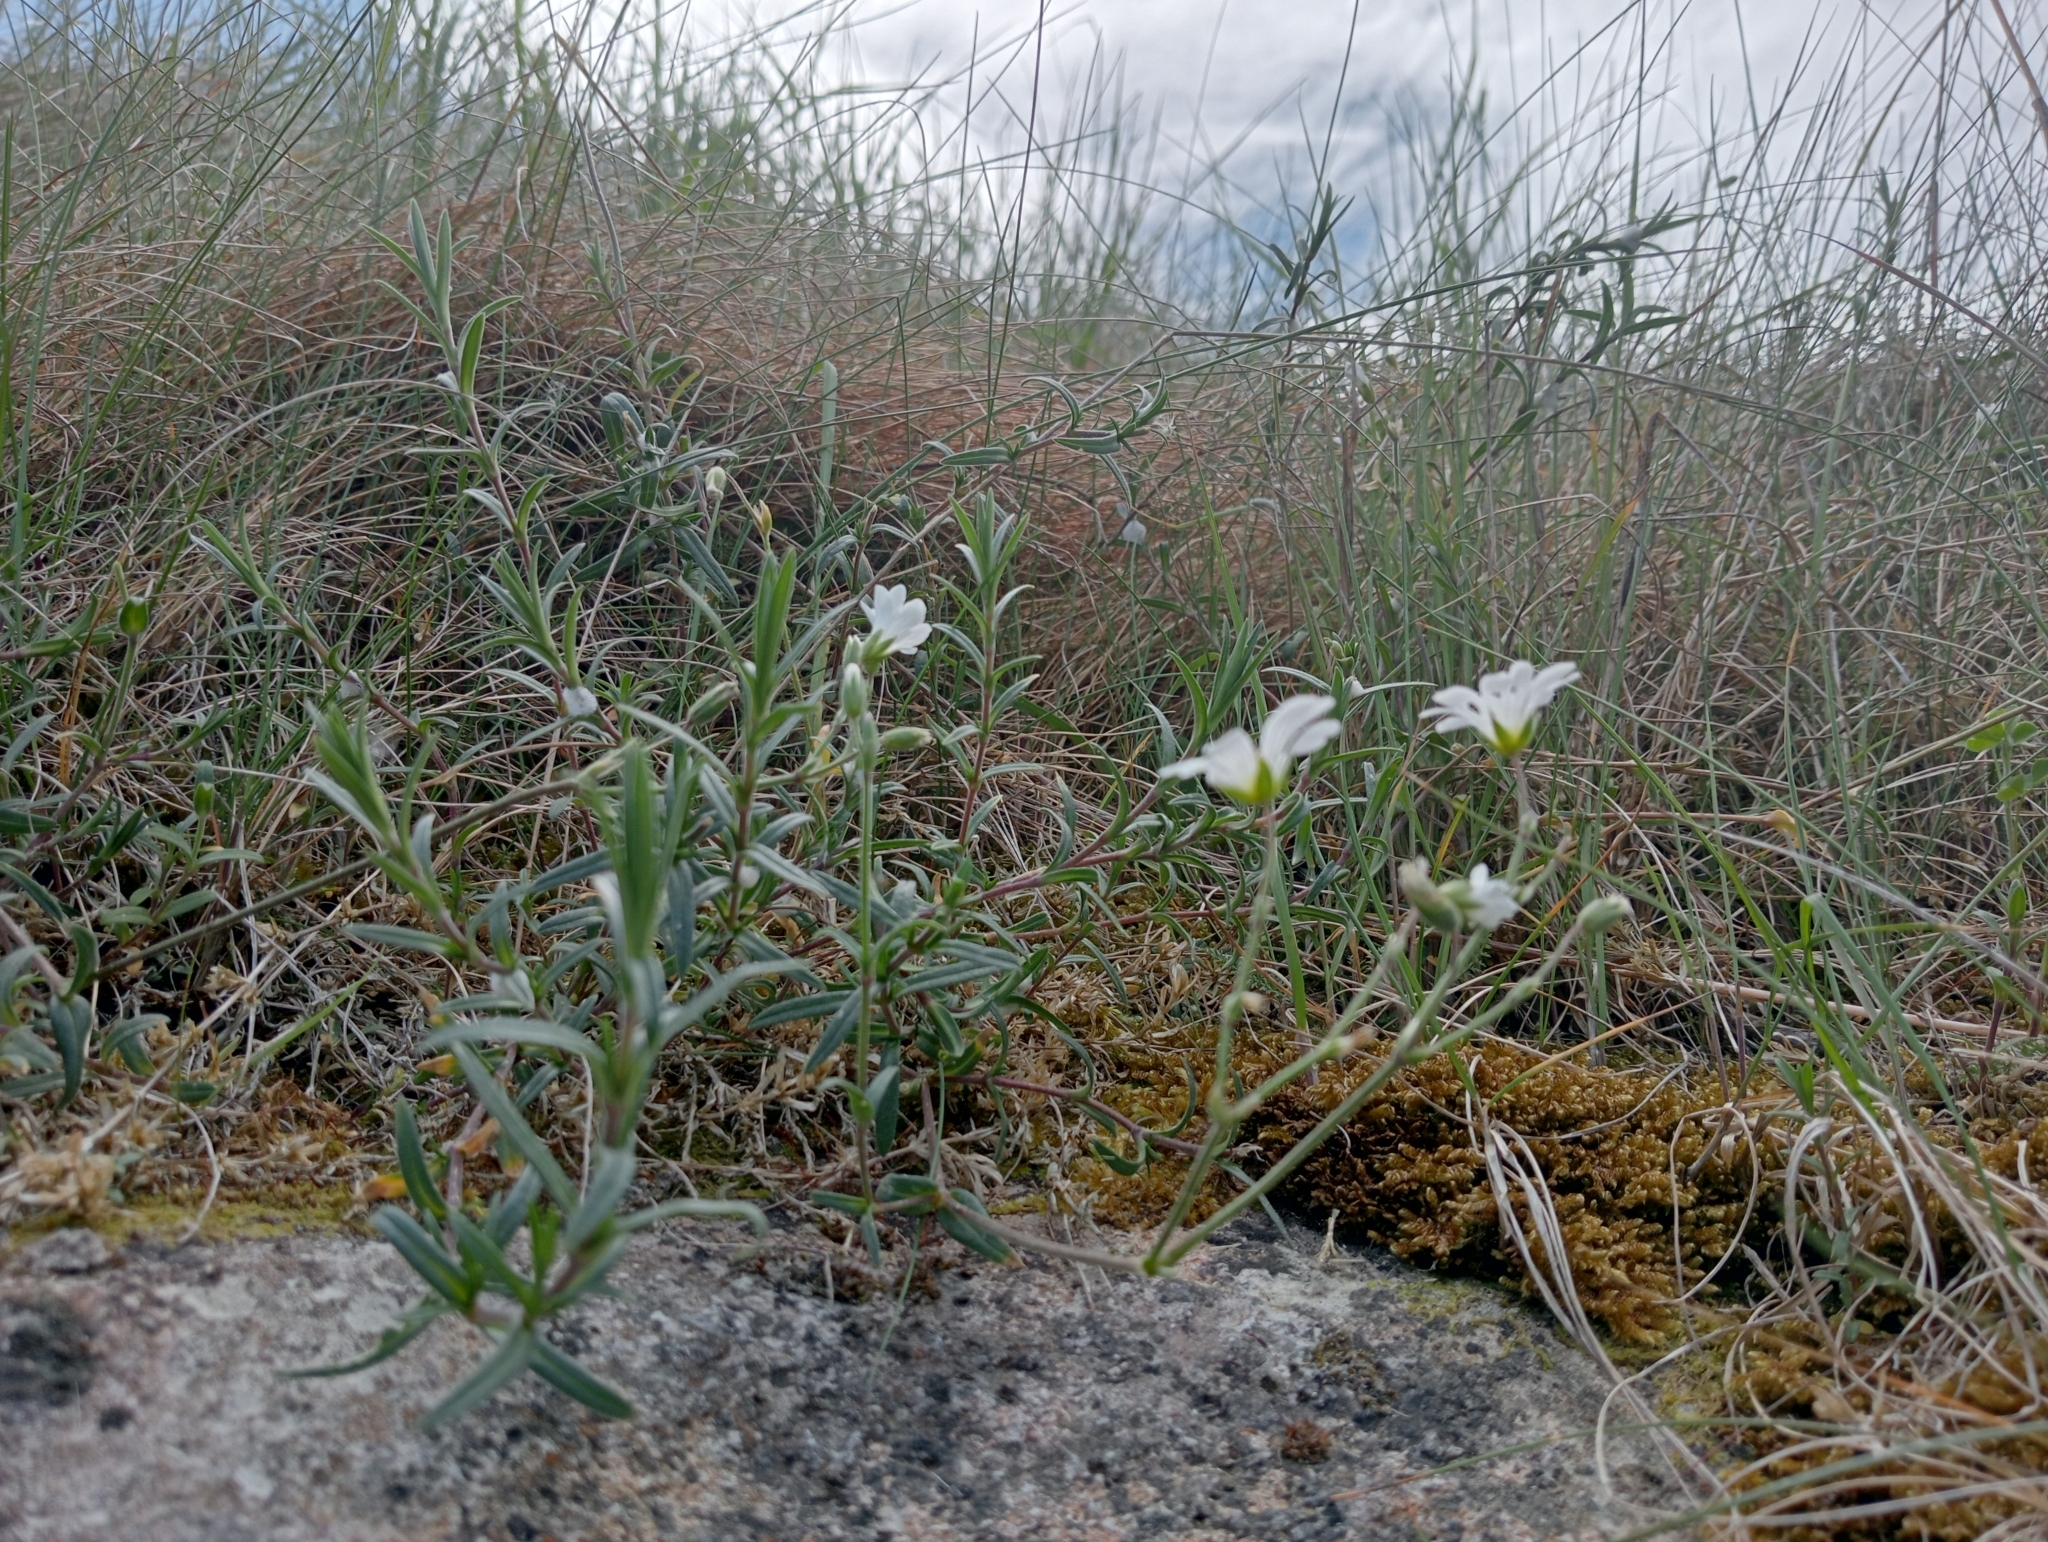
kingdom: Plantae
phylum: Tracheophyta
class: Magnoliopsida
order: Caryophyllales
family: Caryophyllaceae
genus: Cerastium
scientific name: Cerastium arvense
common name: Field mouse-ear
